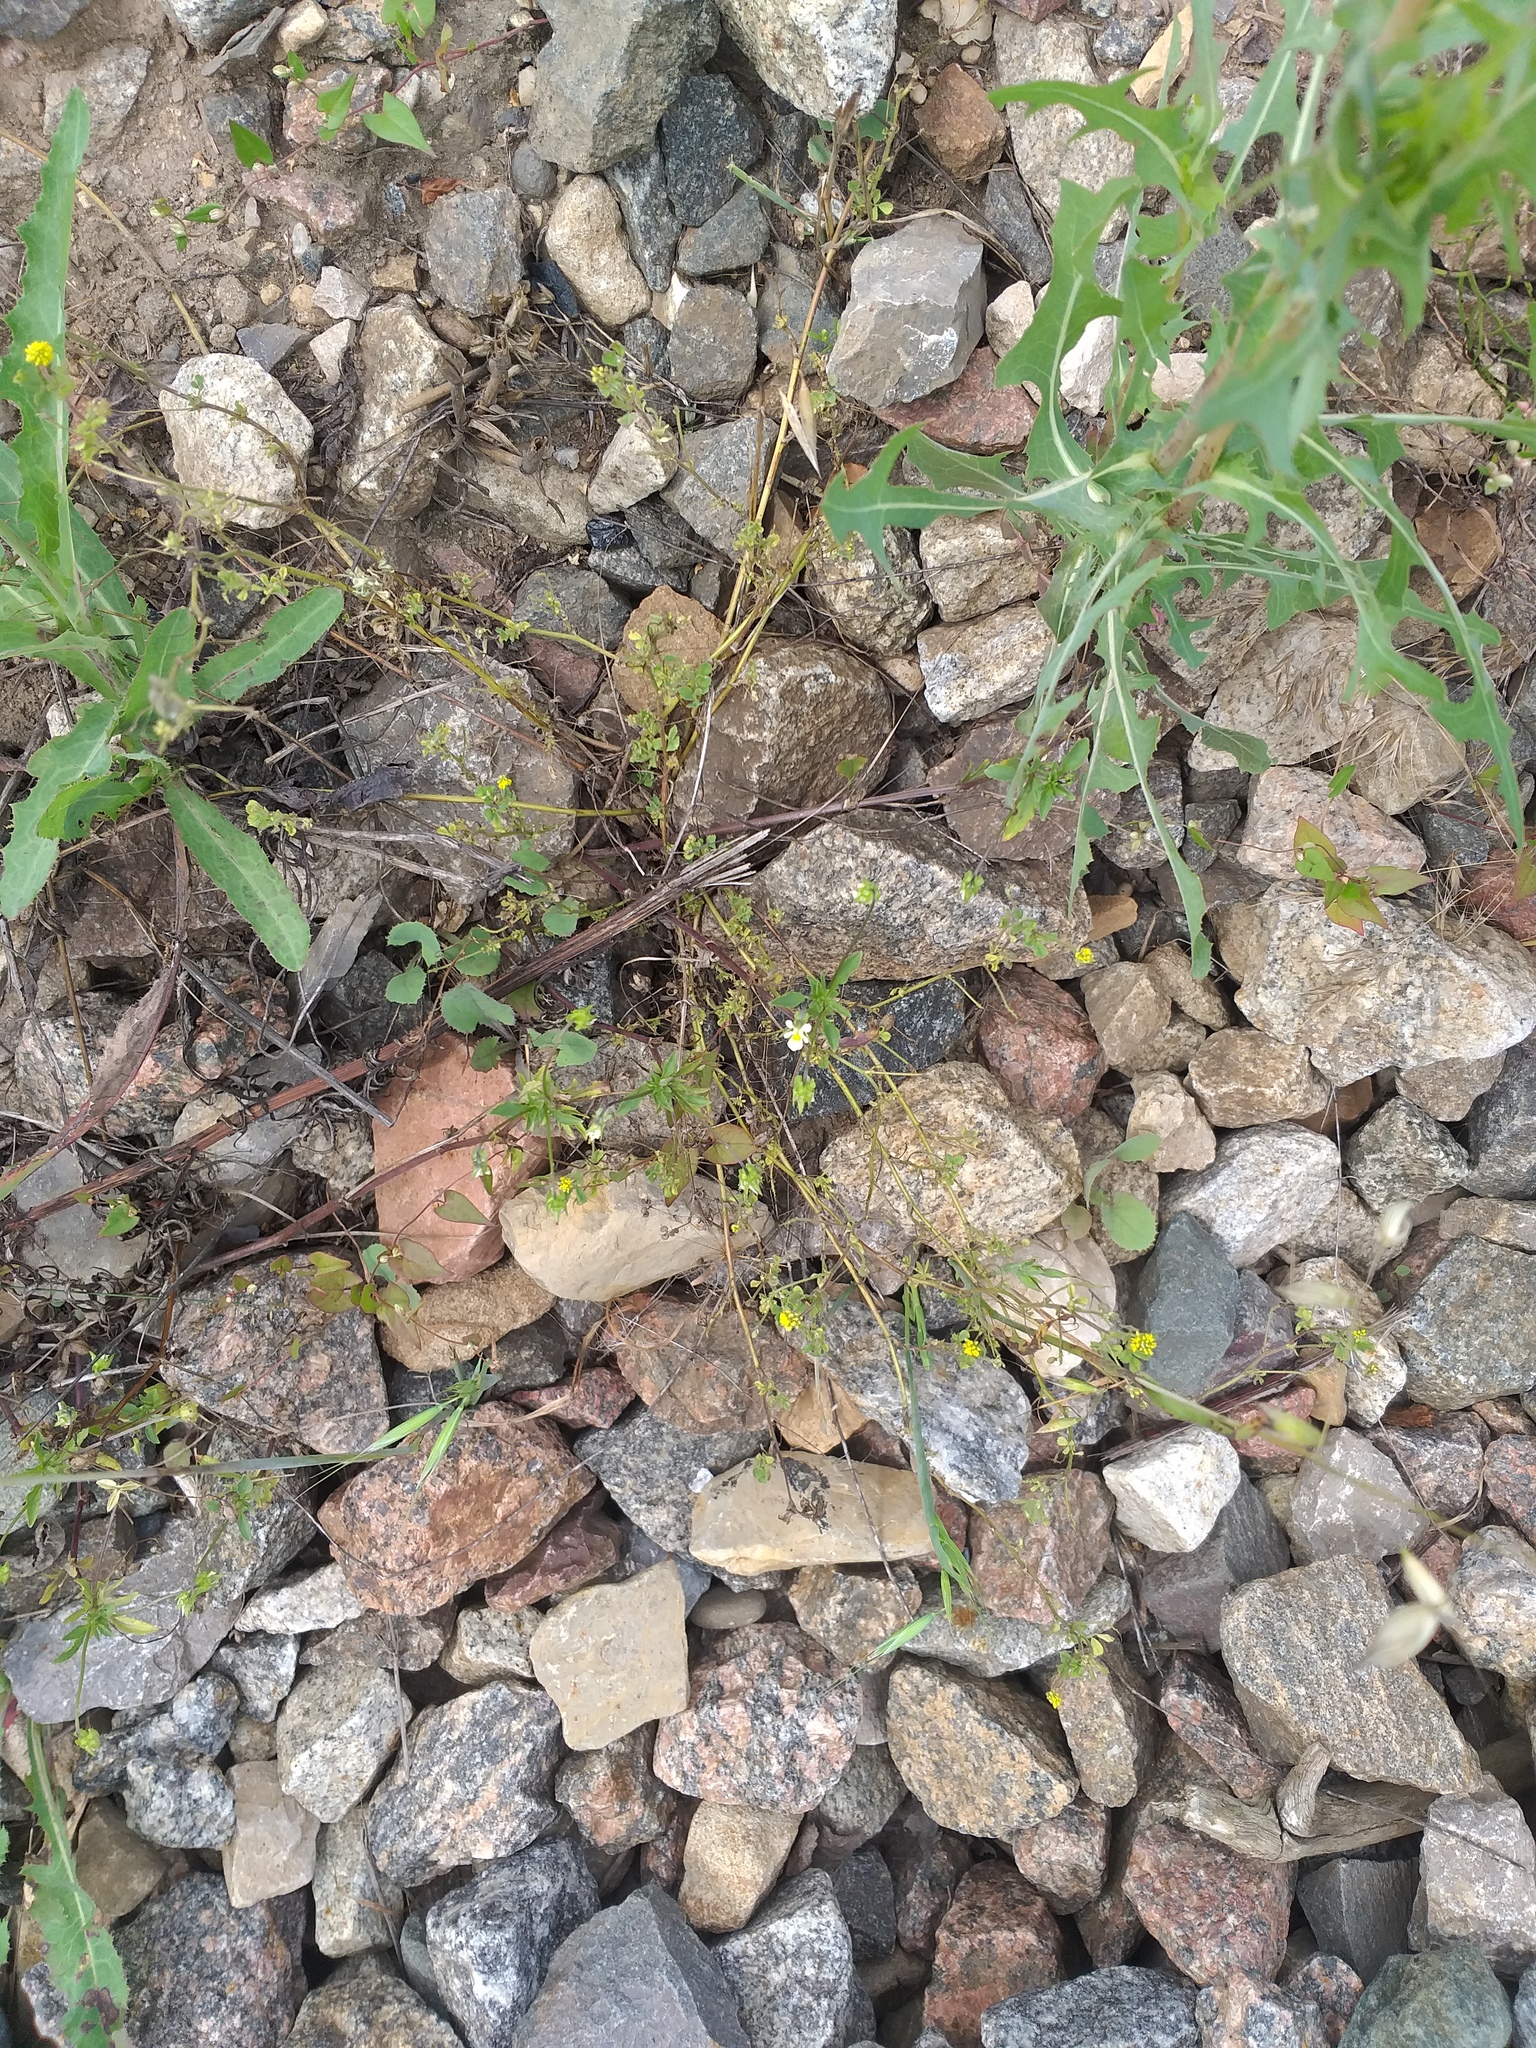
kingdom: Plantae
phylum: Tracheophyta
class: Magnoliopsida
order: Malpighiales
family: Violaceae
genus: Viola
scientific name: Viola arvensis
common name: Field pansy
